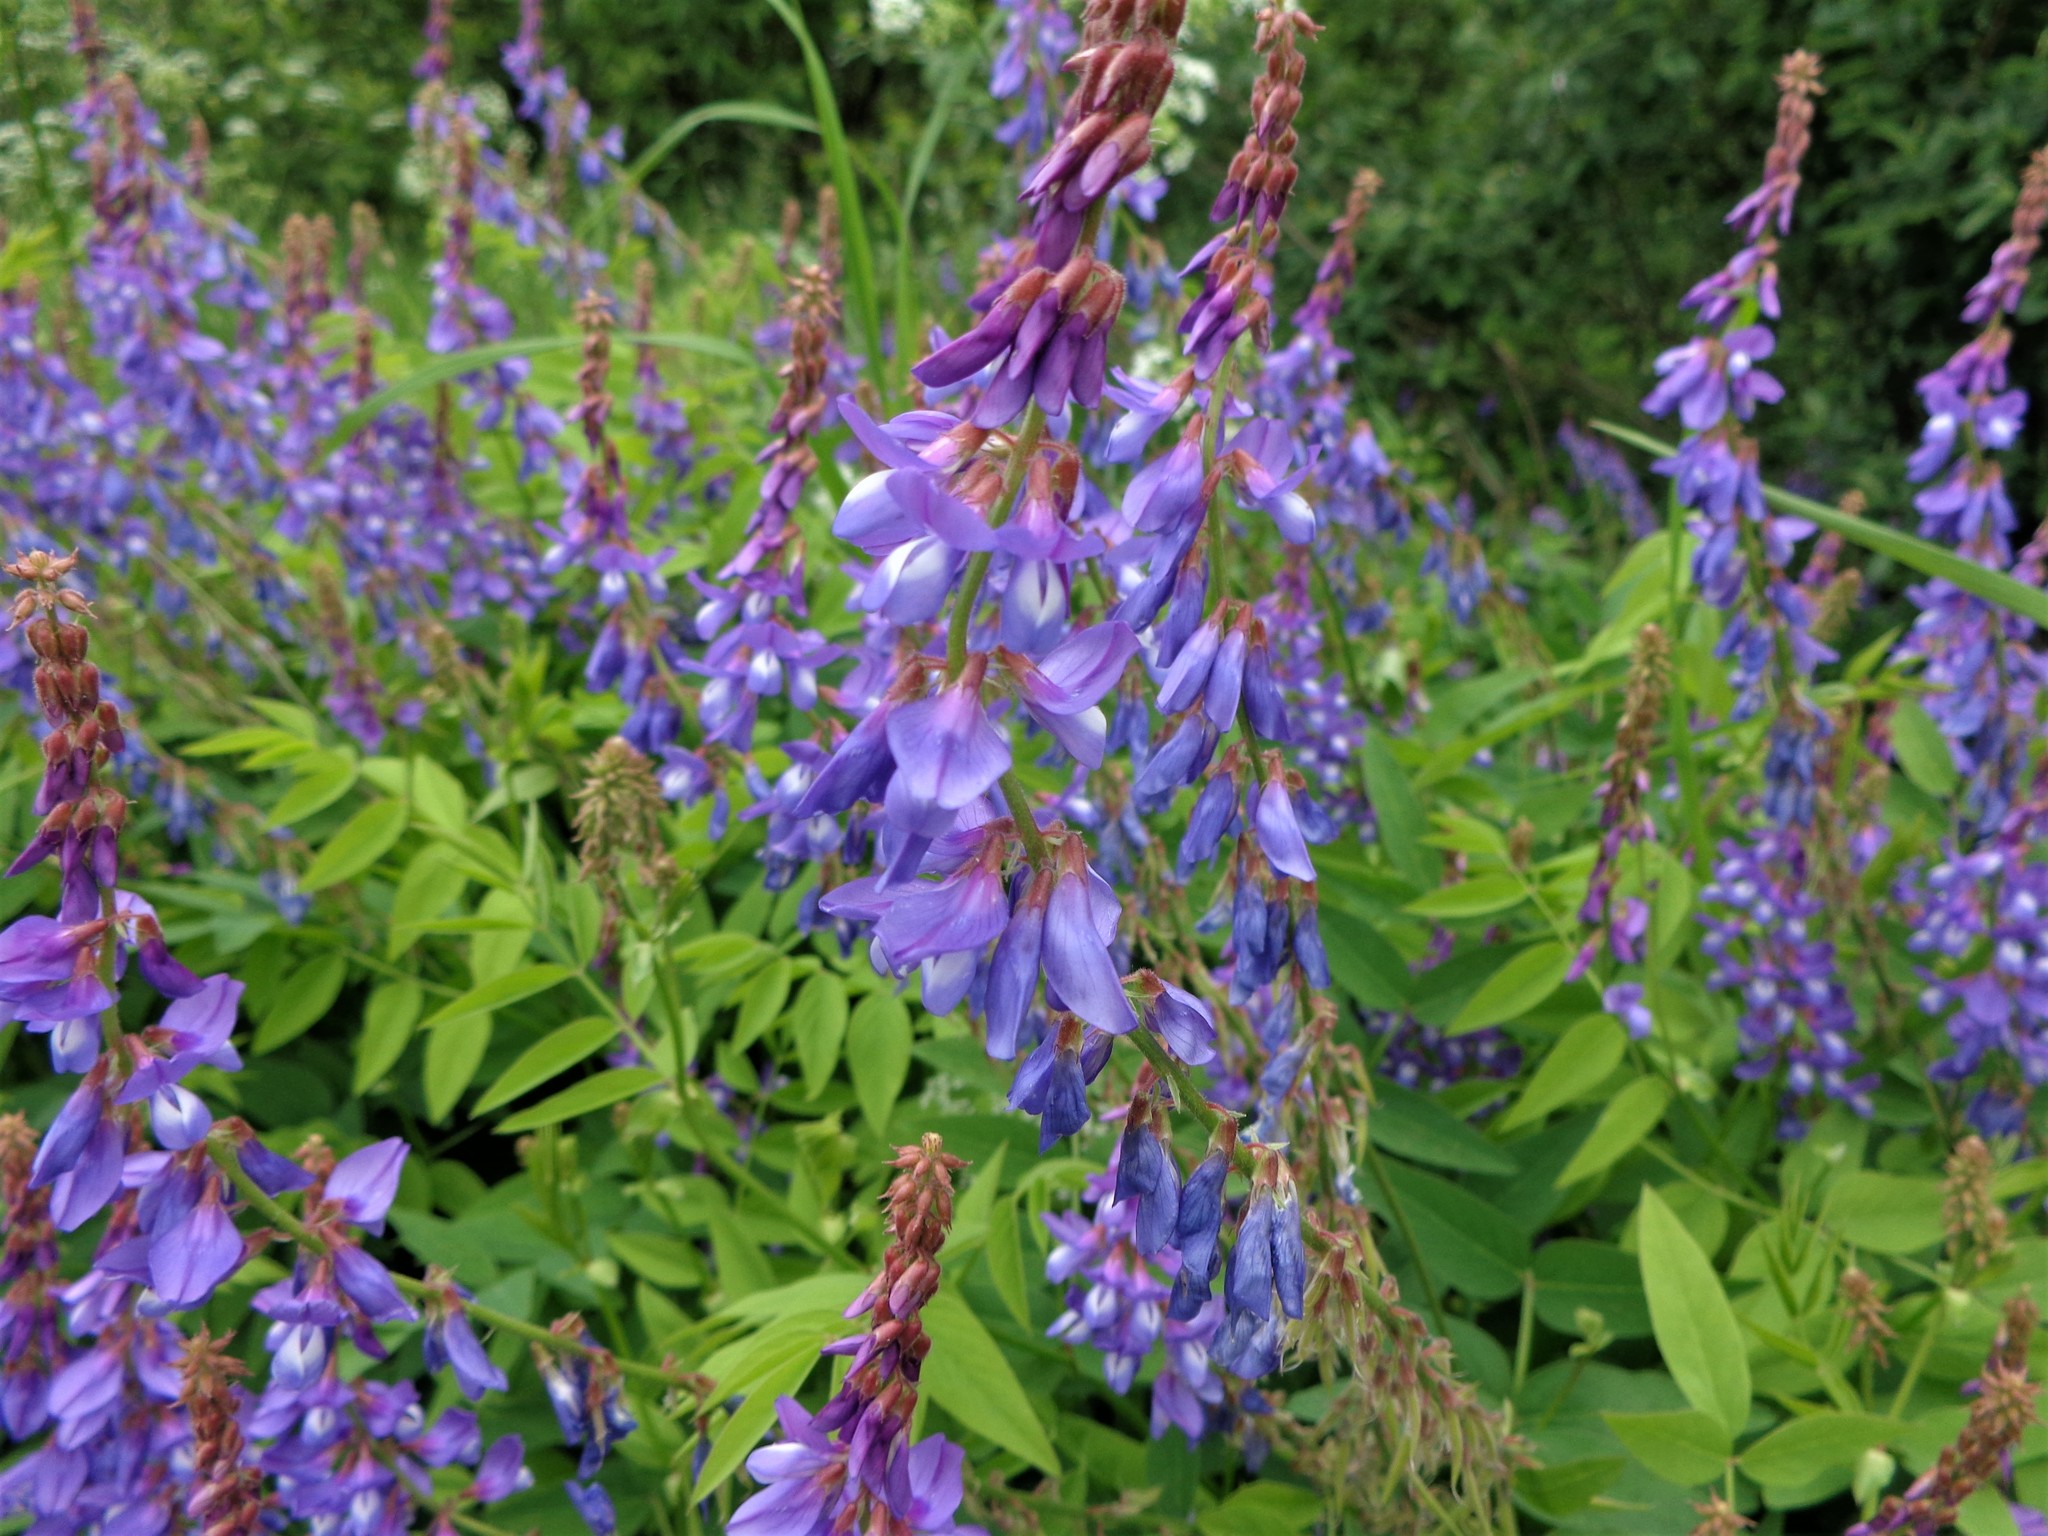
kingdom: Plantae
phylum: Tracheophyta
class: Magnoliopsida
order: Fabales
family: Fabaceae
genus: Galega
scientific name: Galega orientalis
